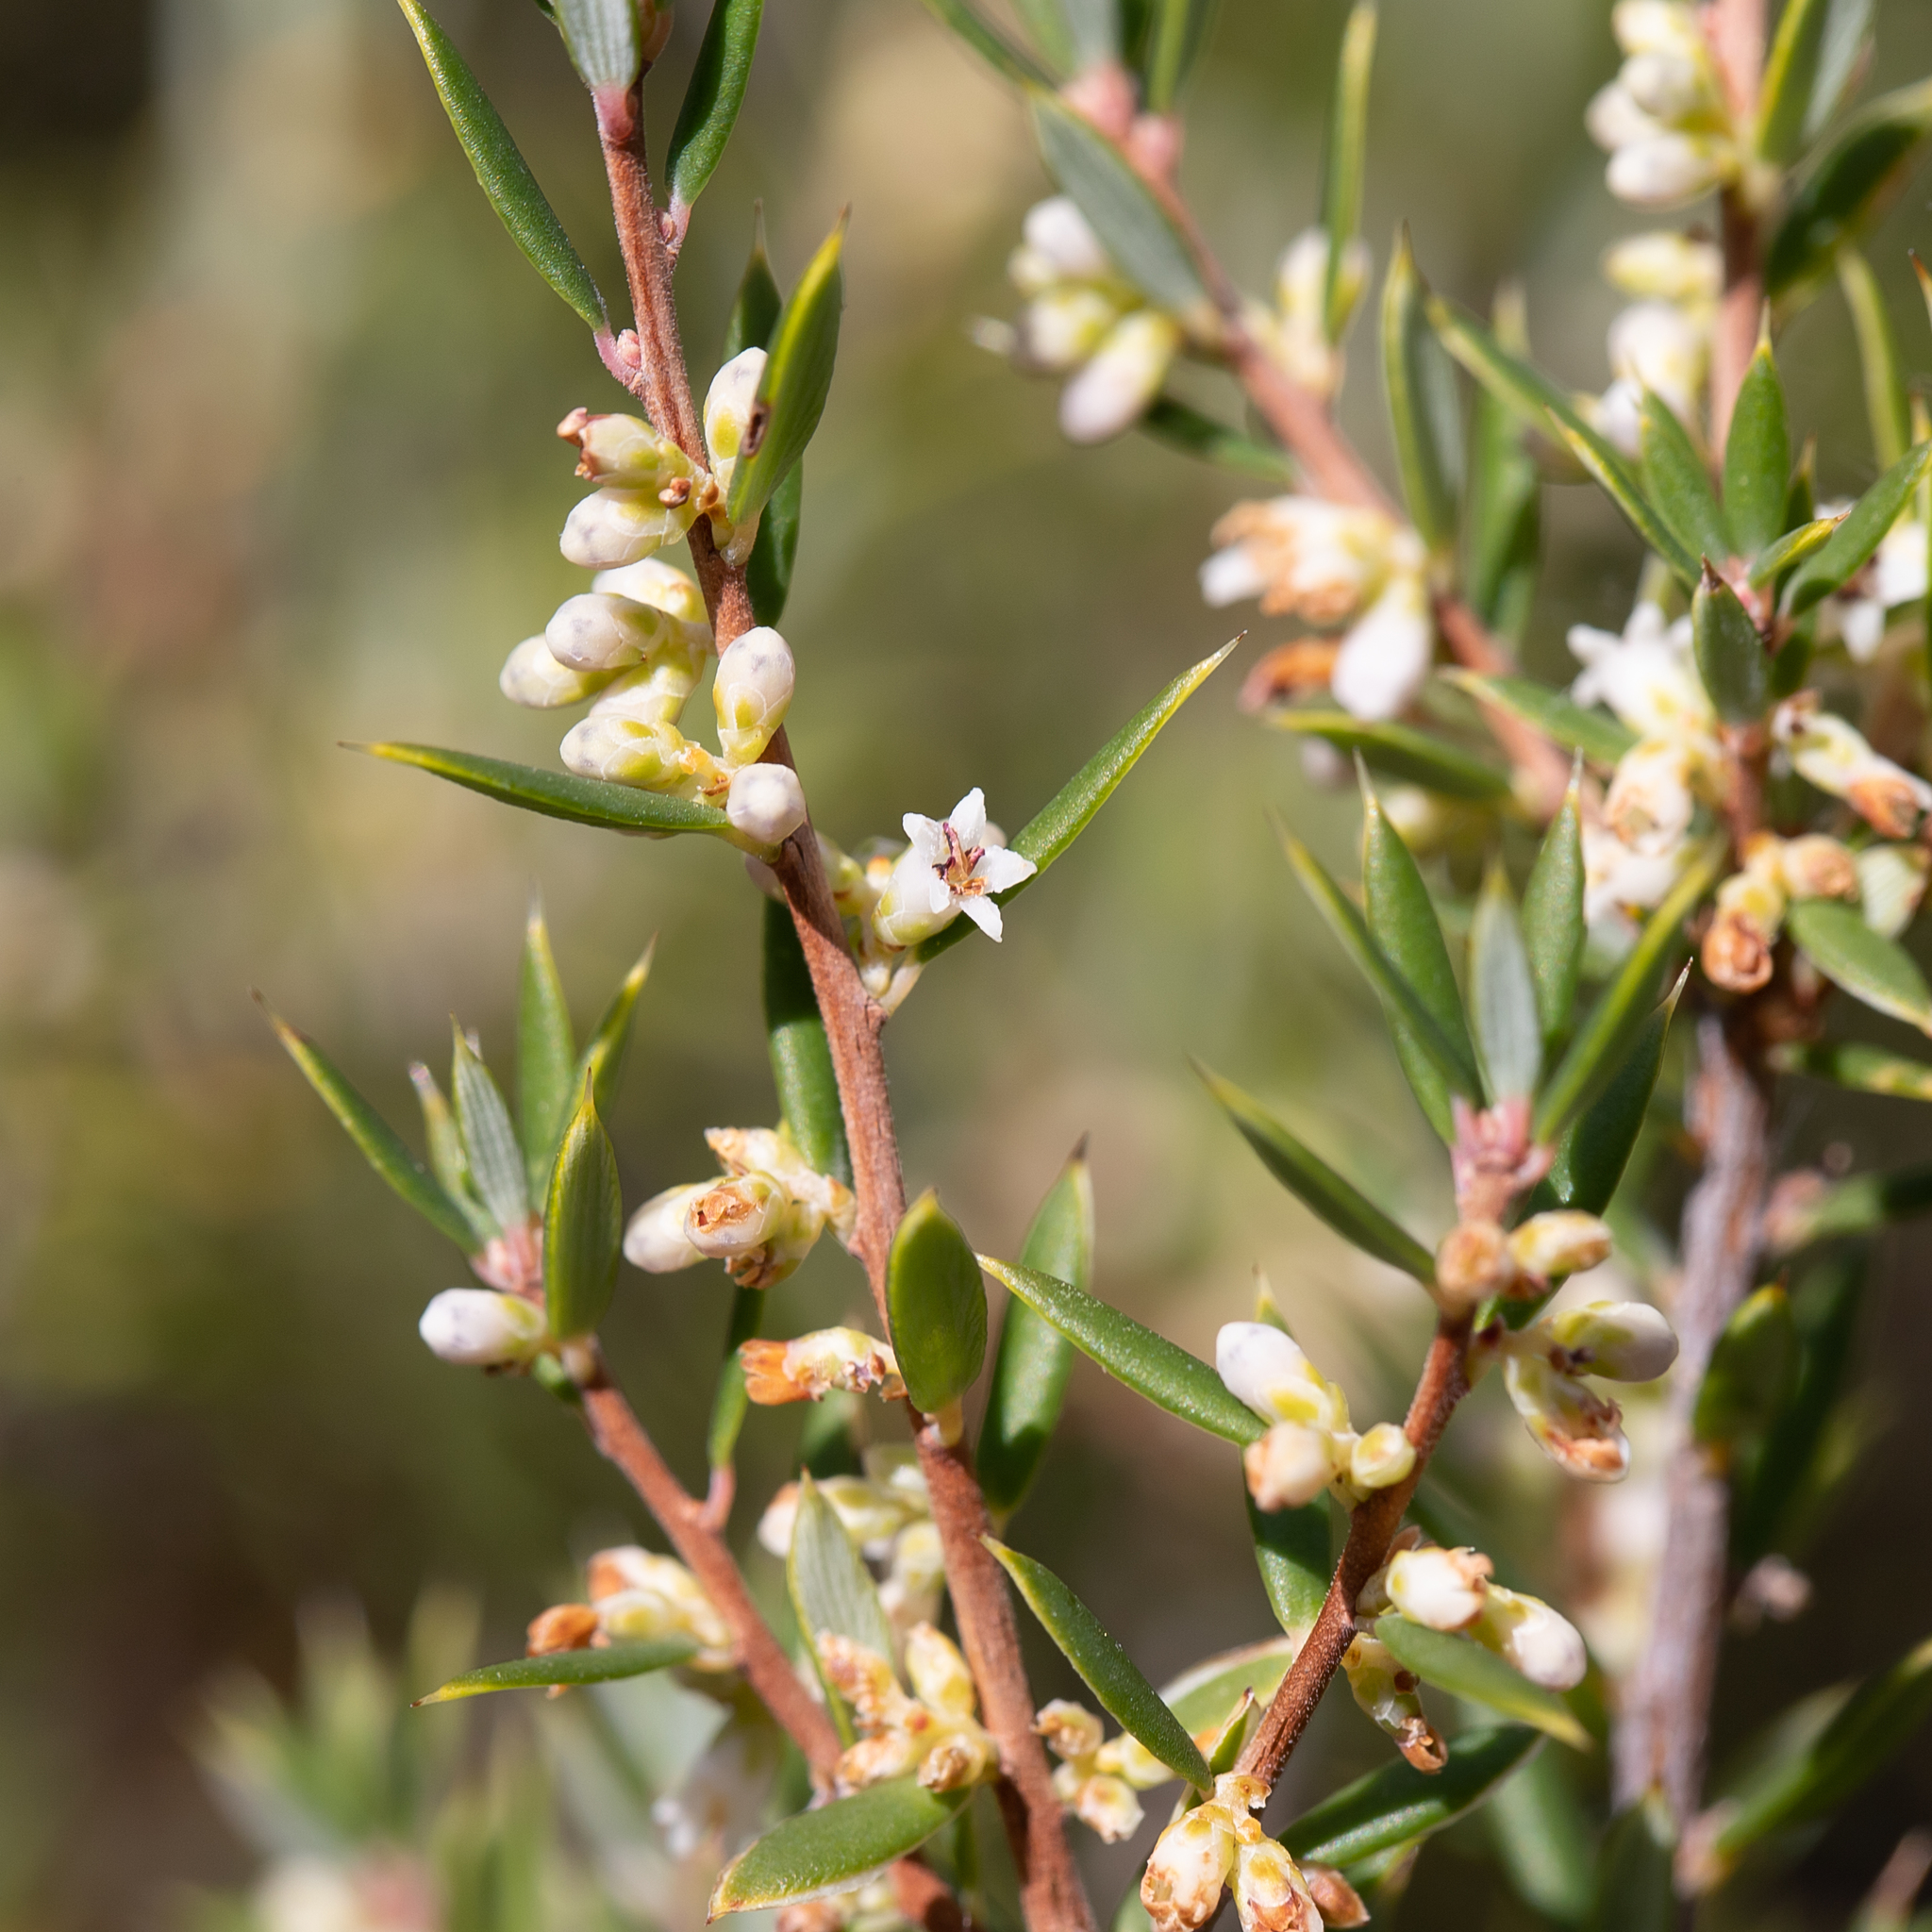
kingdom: Plantae
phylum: Tracheophyta
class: Magnoliopsida
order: Ericales
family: Ericaceae
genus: Monotoca
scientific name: Monotoca scoparia
